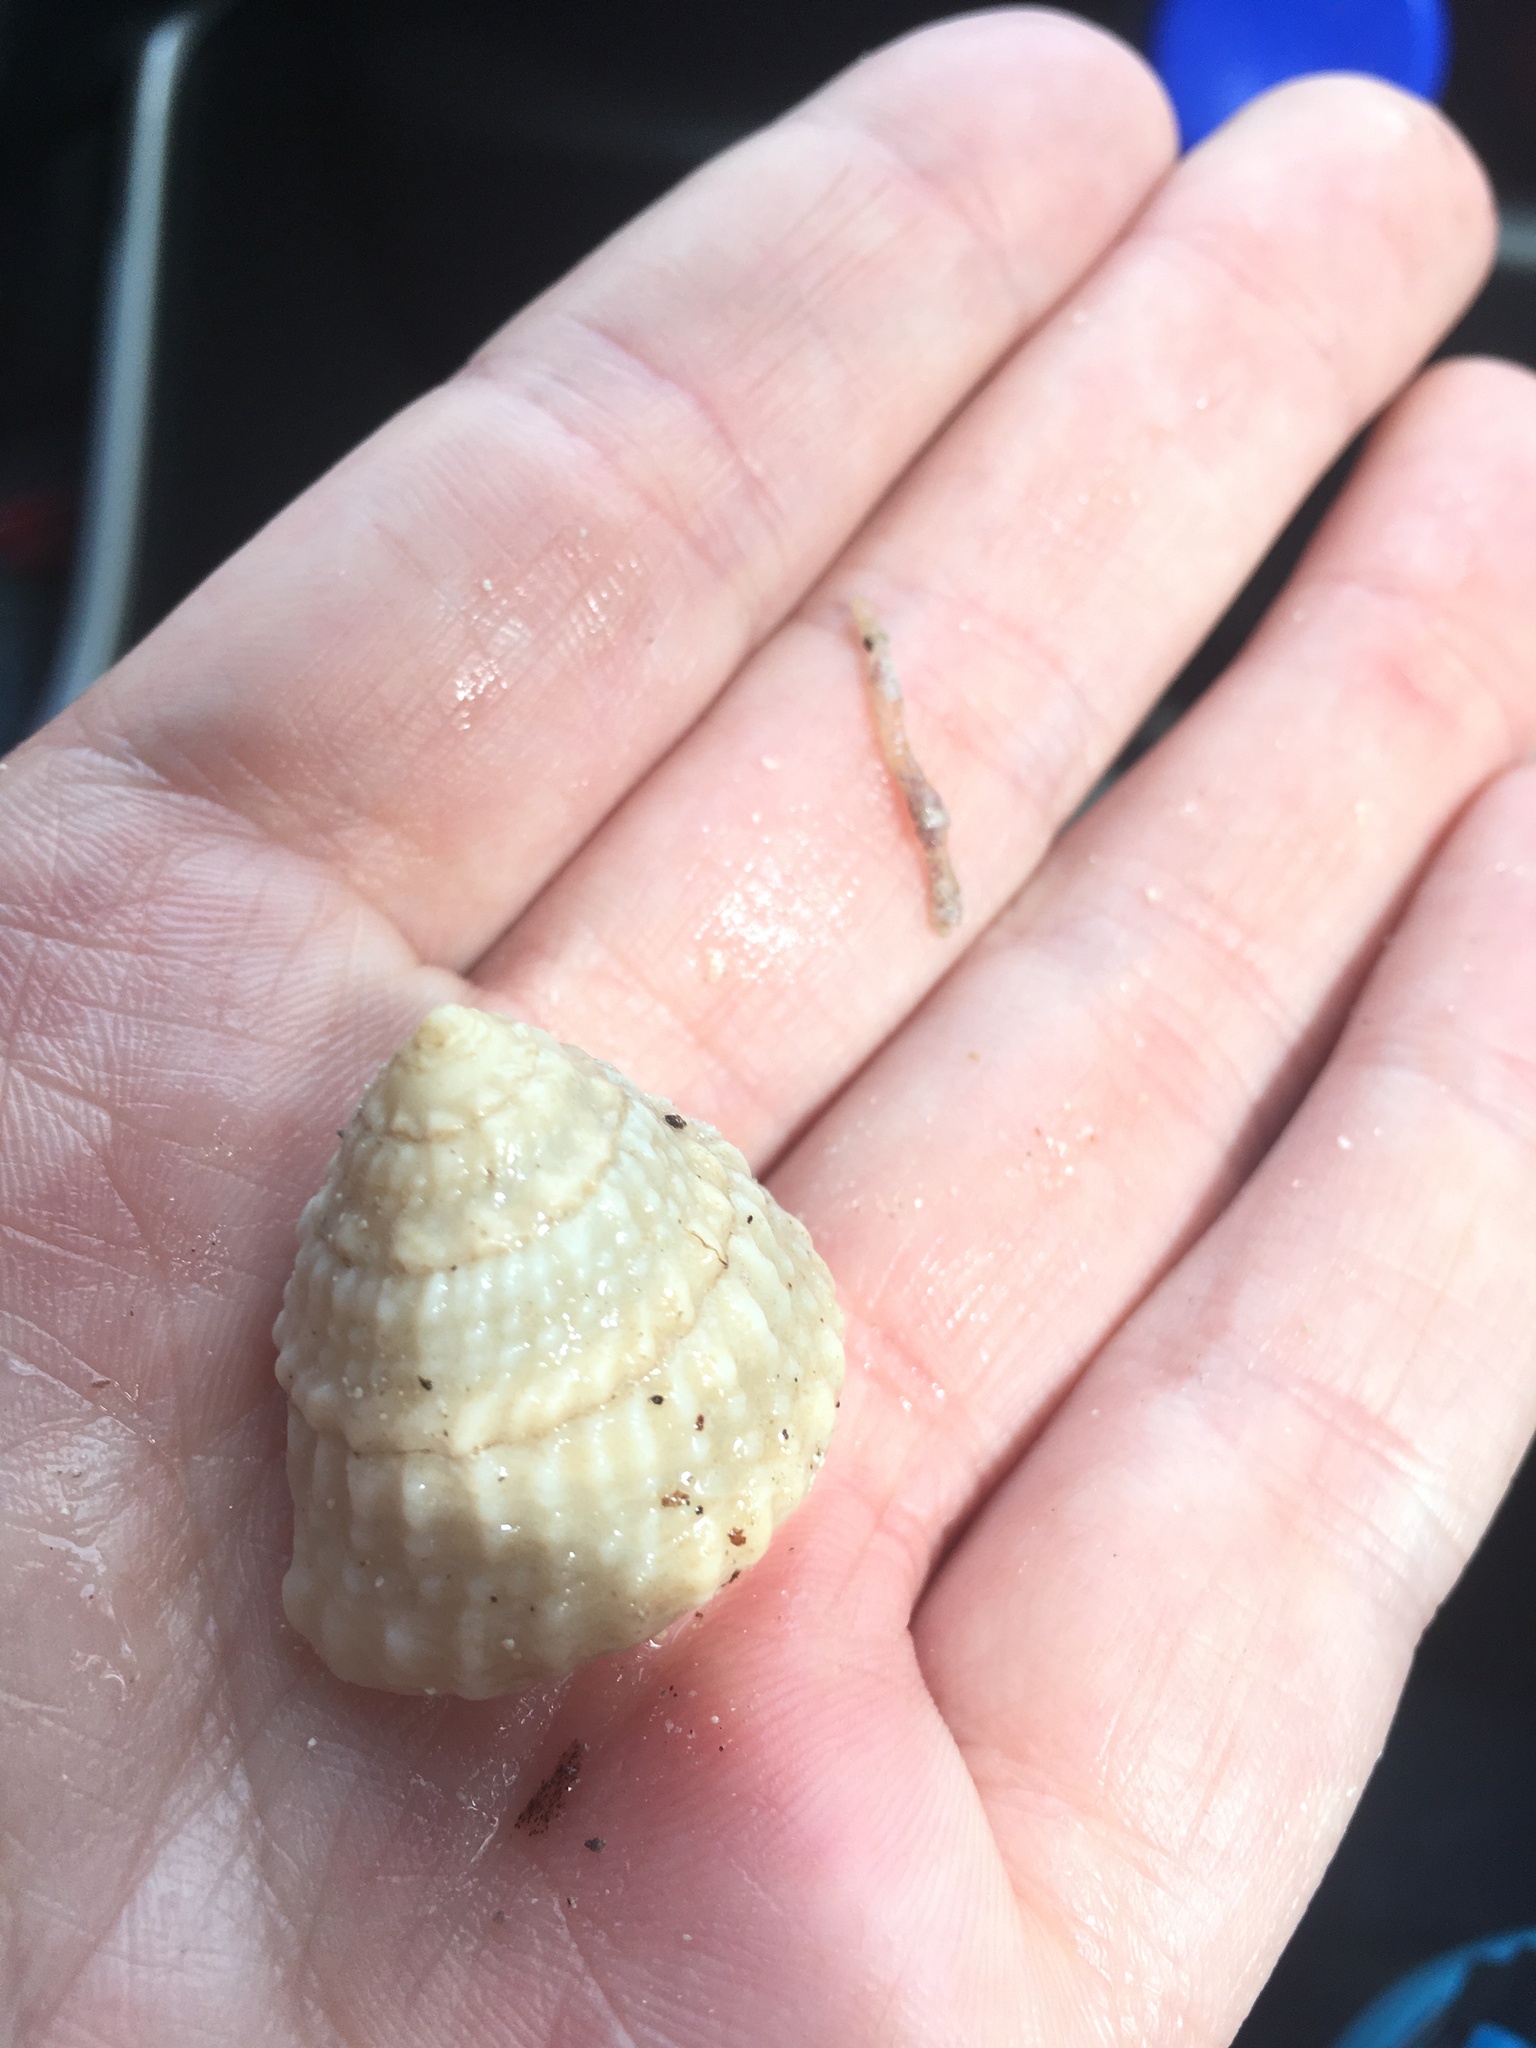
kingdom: Animalia
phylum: Mollusca
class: Gastropoda
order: Trochida
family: Turbinidae
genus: Lithopoma
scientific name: Lithopoma americanum
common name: American starsnail
